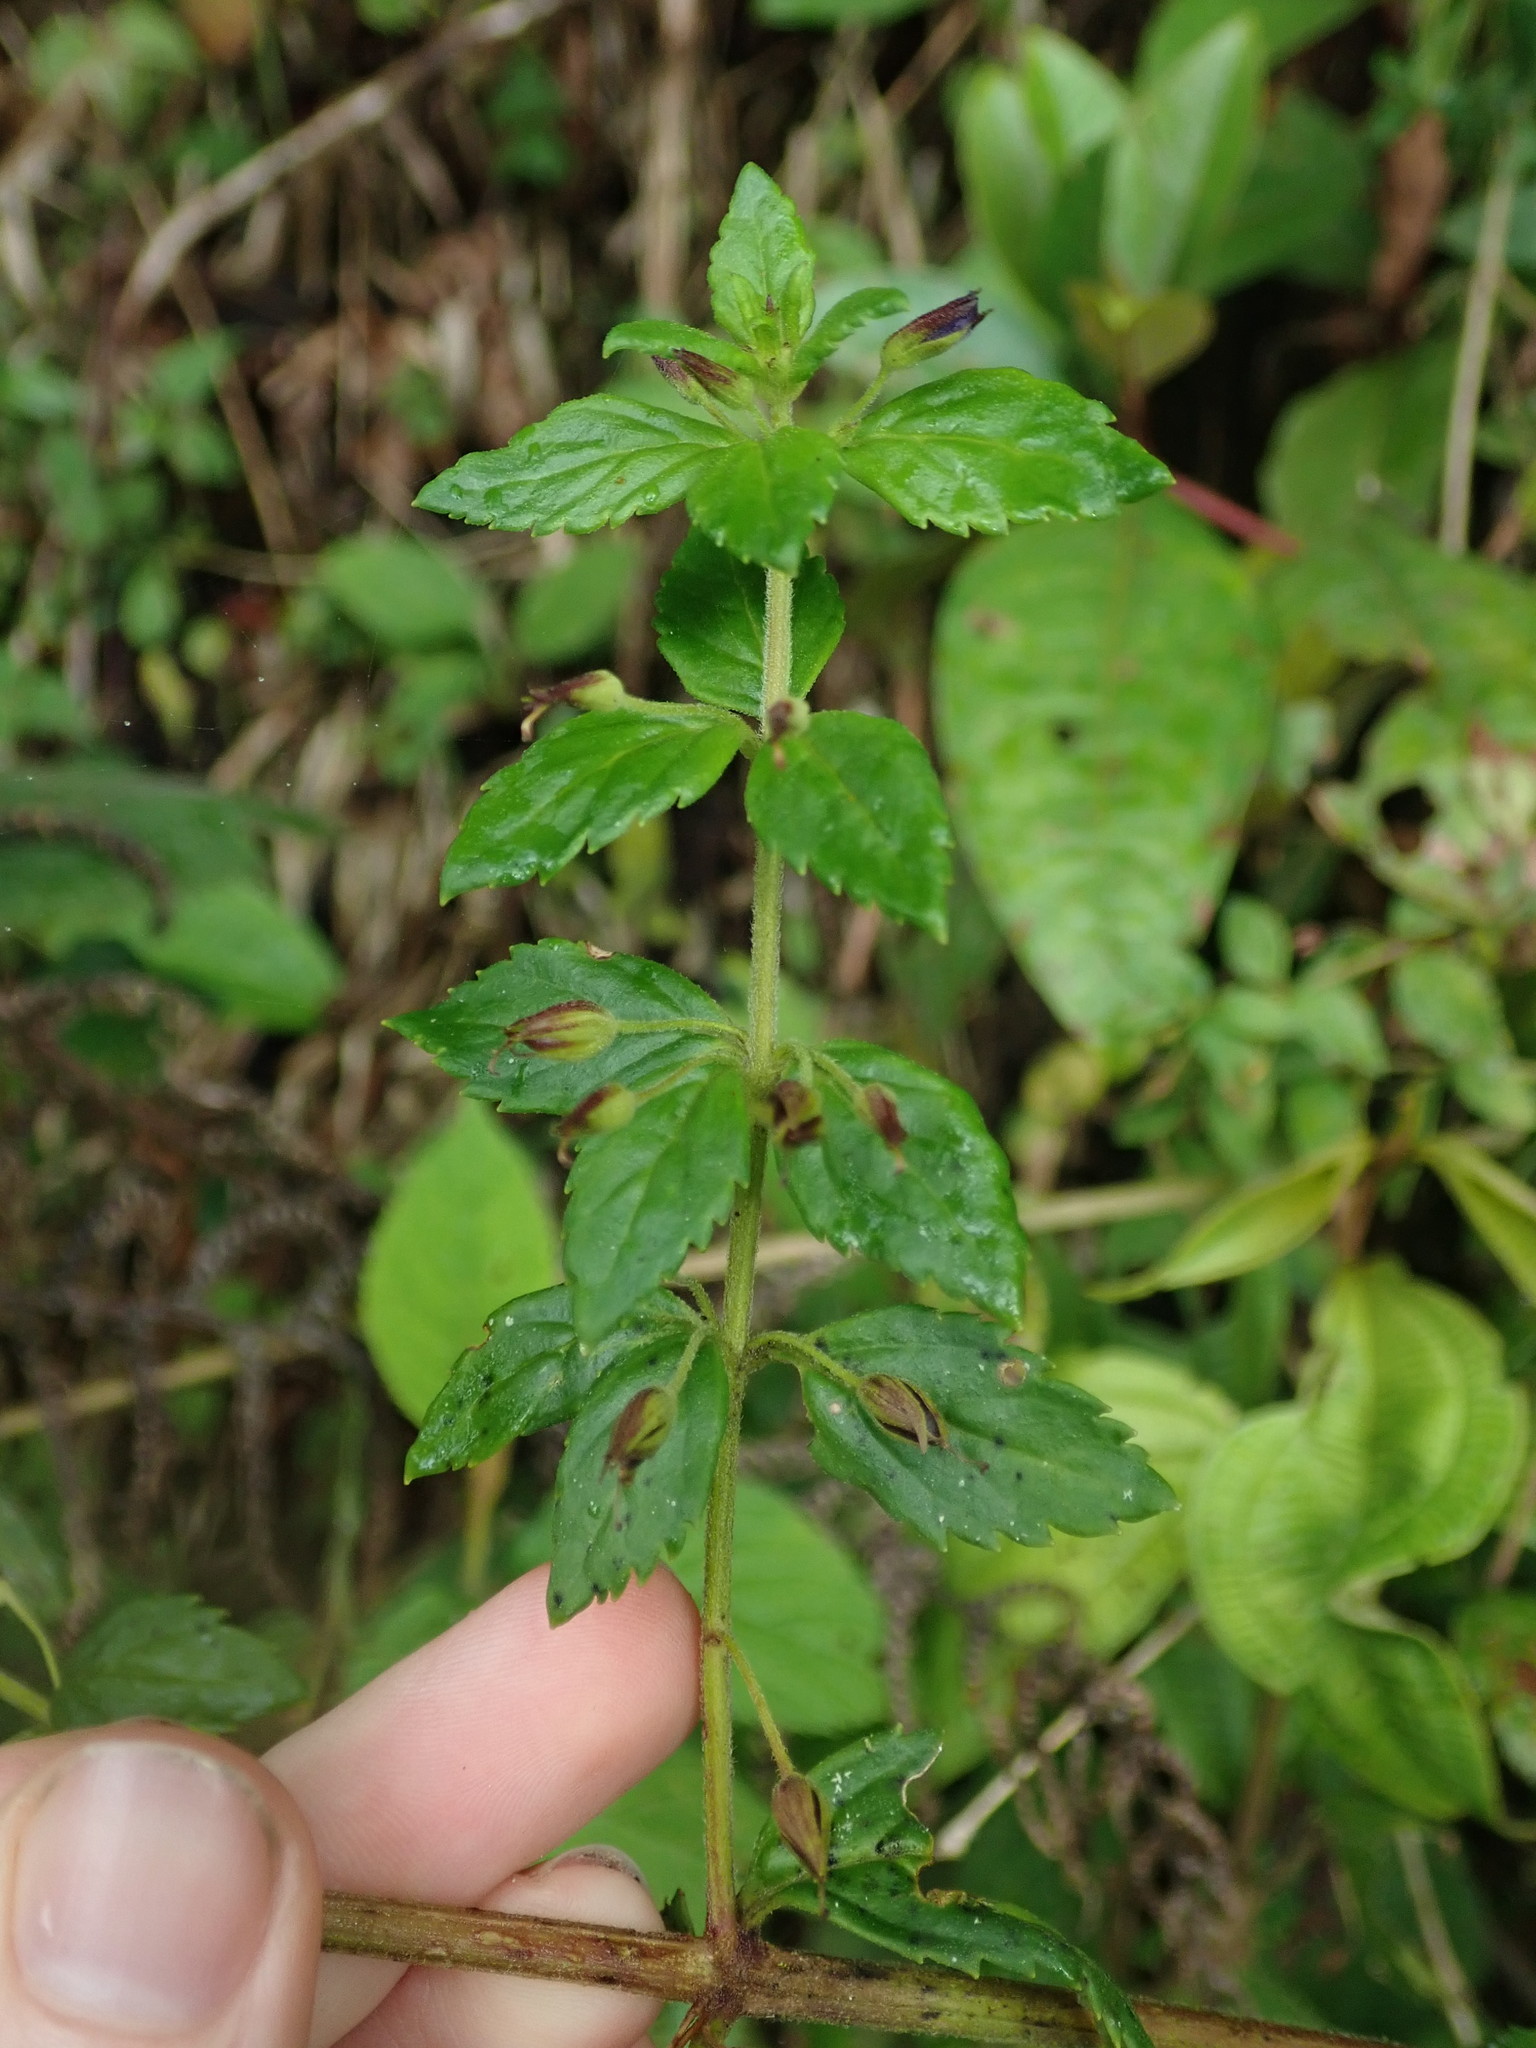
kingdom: Plantae
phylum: Tracheophyta
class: Magnoliopsida
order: Lamiales
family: Plantaginaceae
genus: Stemodia
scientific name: Stemodia suffruticosa
